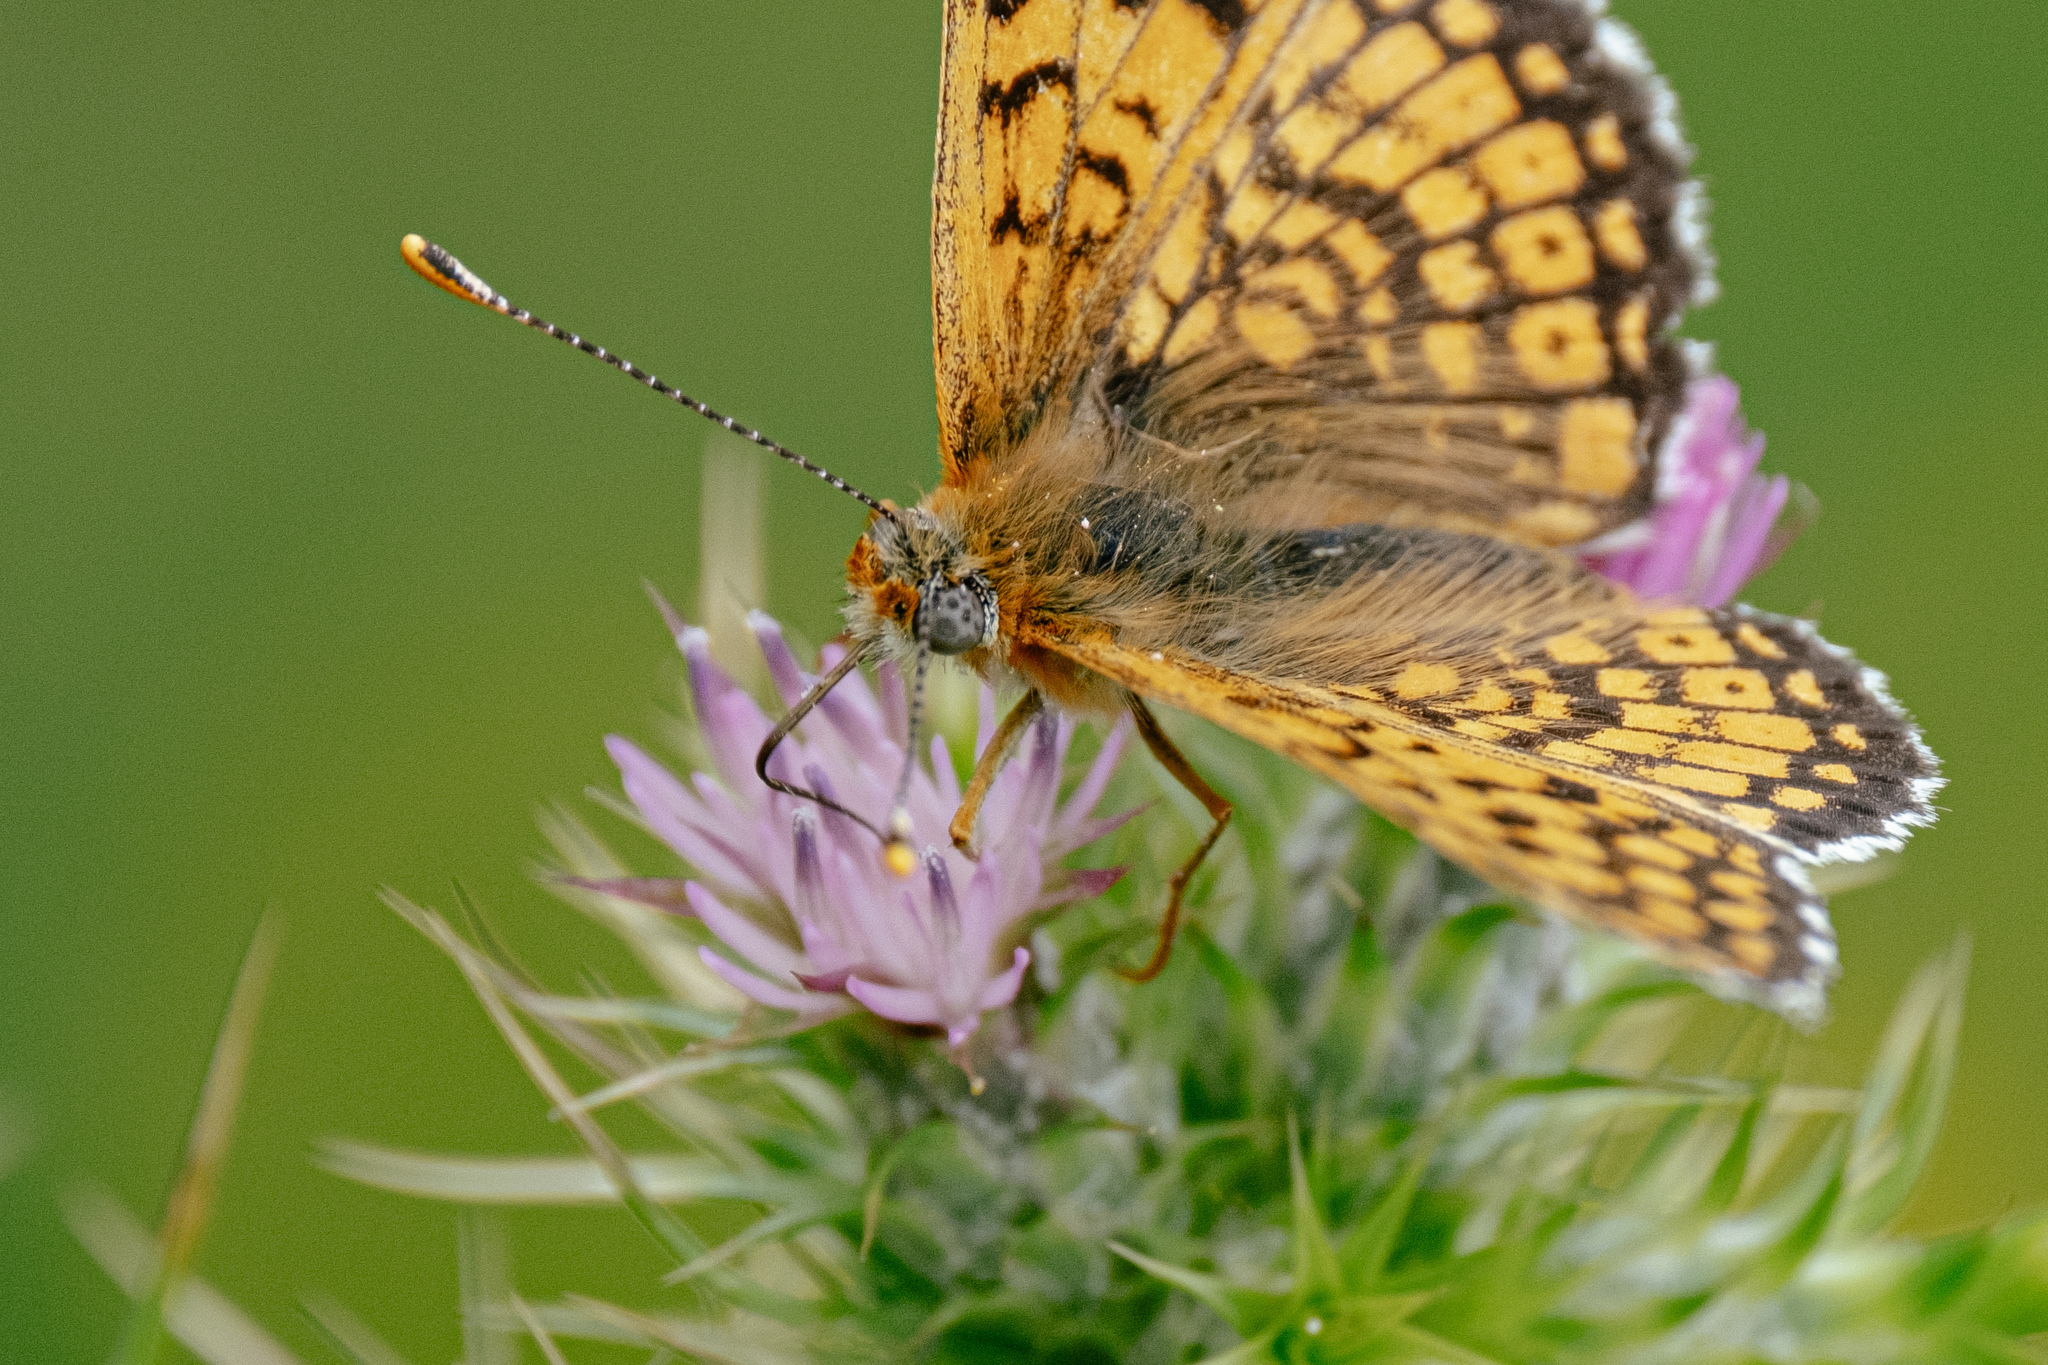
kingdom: Animalia
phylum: Arthropoda
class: Insecta
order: Lepidoptera
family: Nymphalidae
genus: Melitaea
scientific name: Melitaea cinxia
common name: Glanville fritillary
